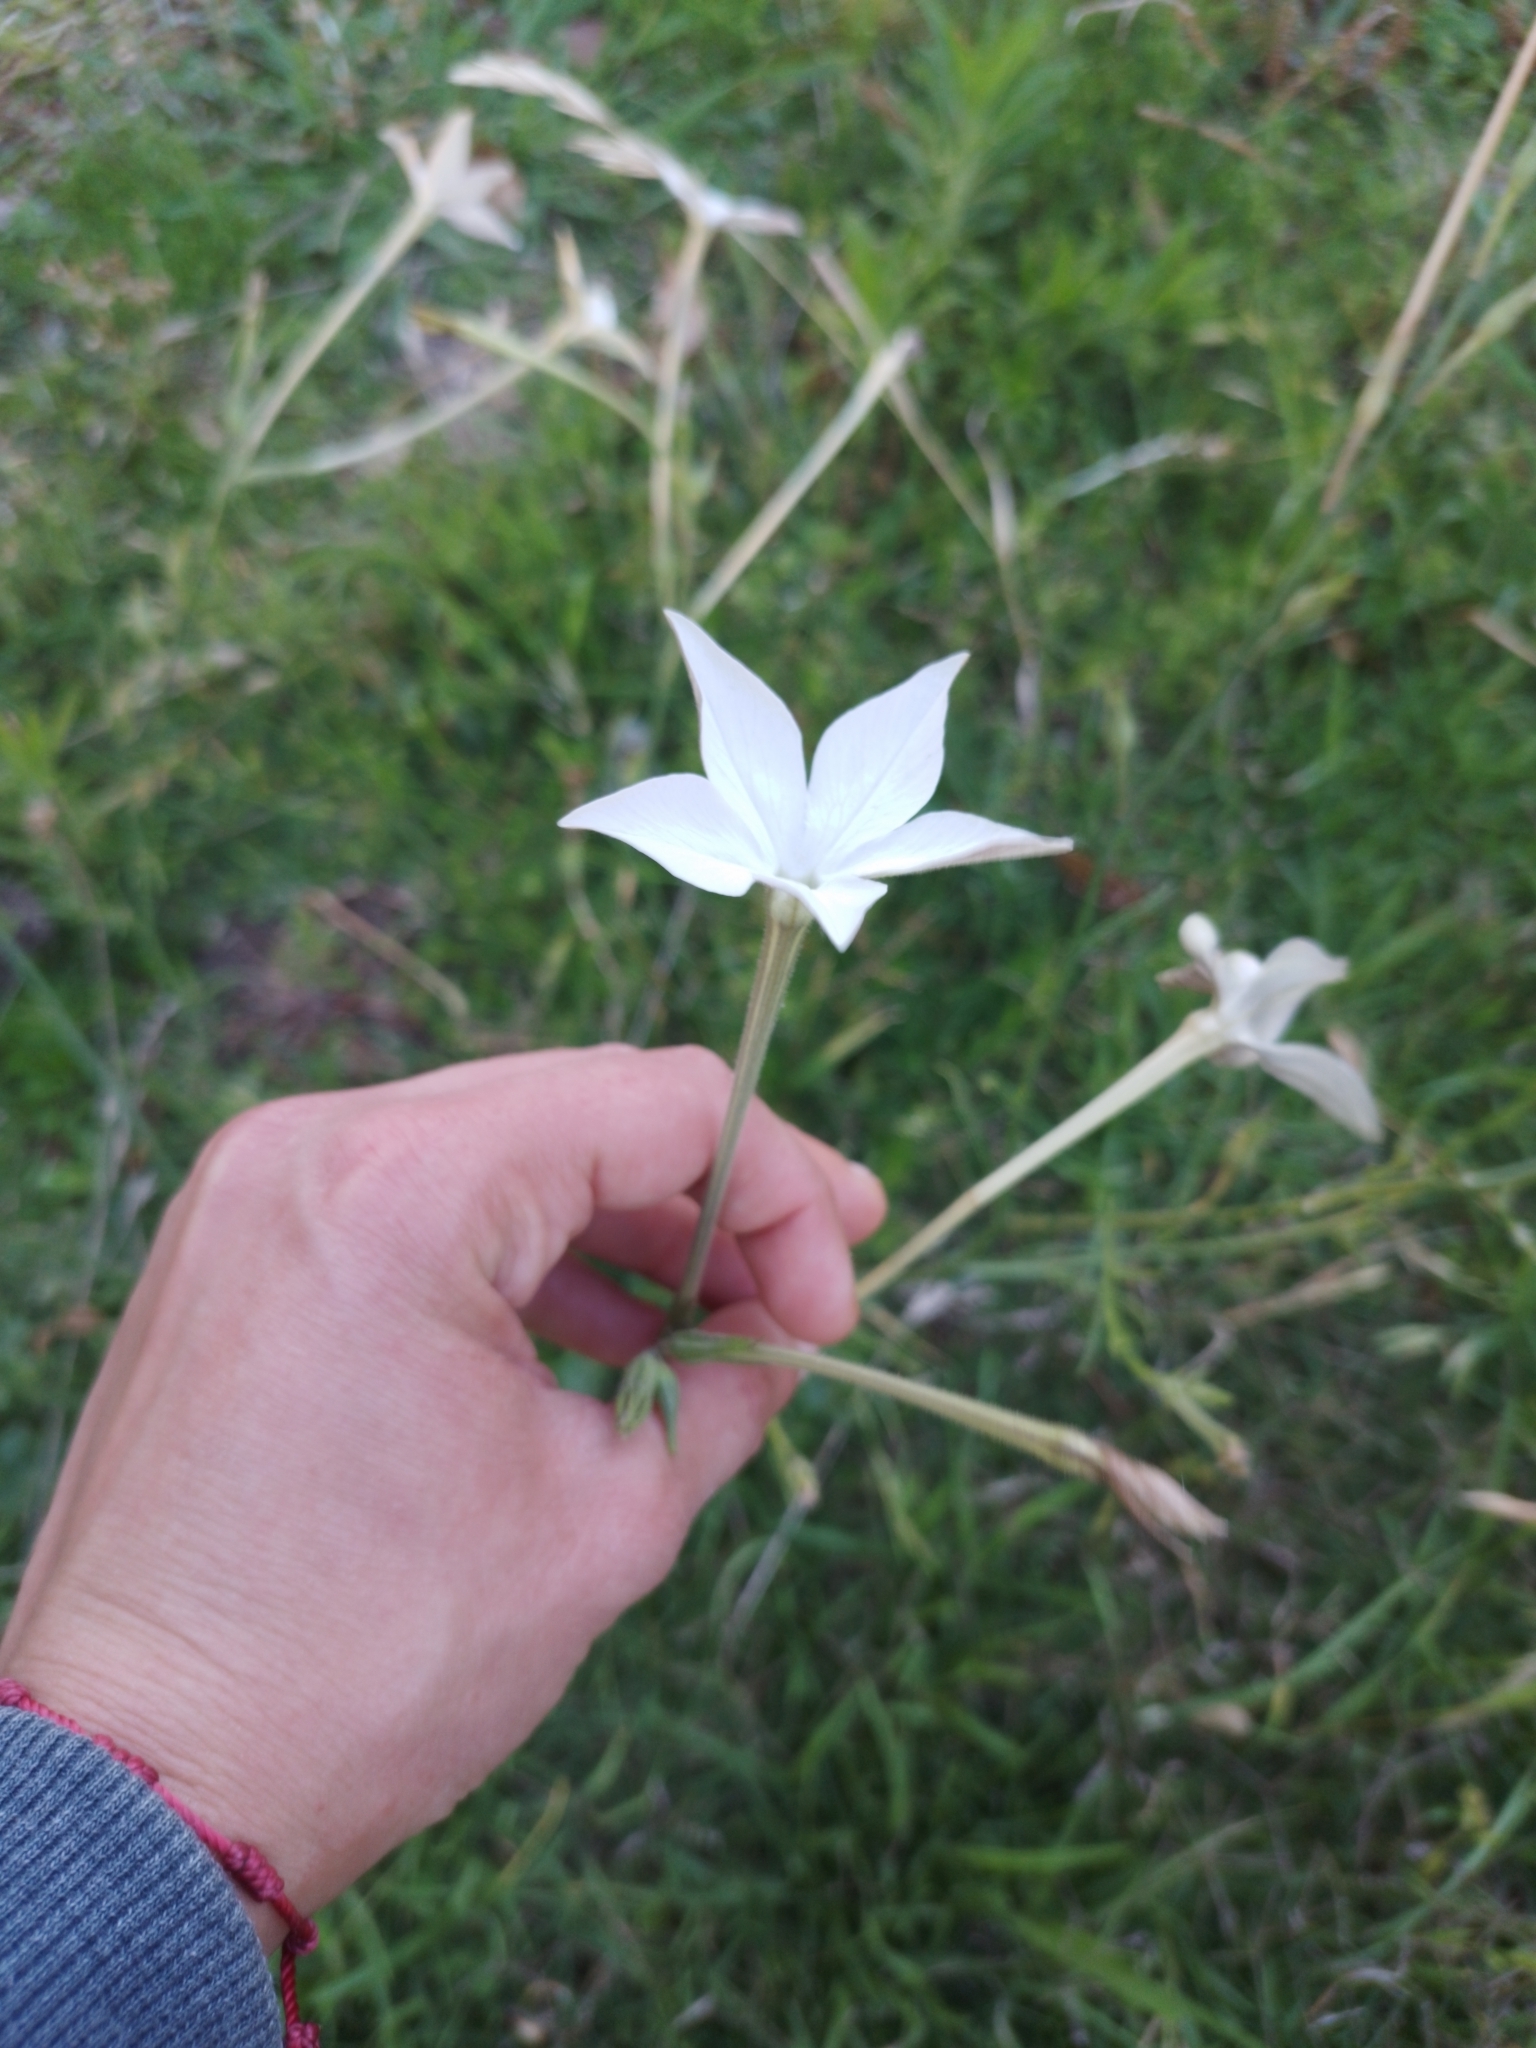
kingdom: Plantae
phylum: Tracheophyta
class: Magnoliopsida
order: Solanales
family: Solanaceae
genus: Nicotiana
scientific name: Nicotiana longiflora
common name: Long-flowered tobacco
